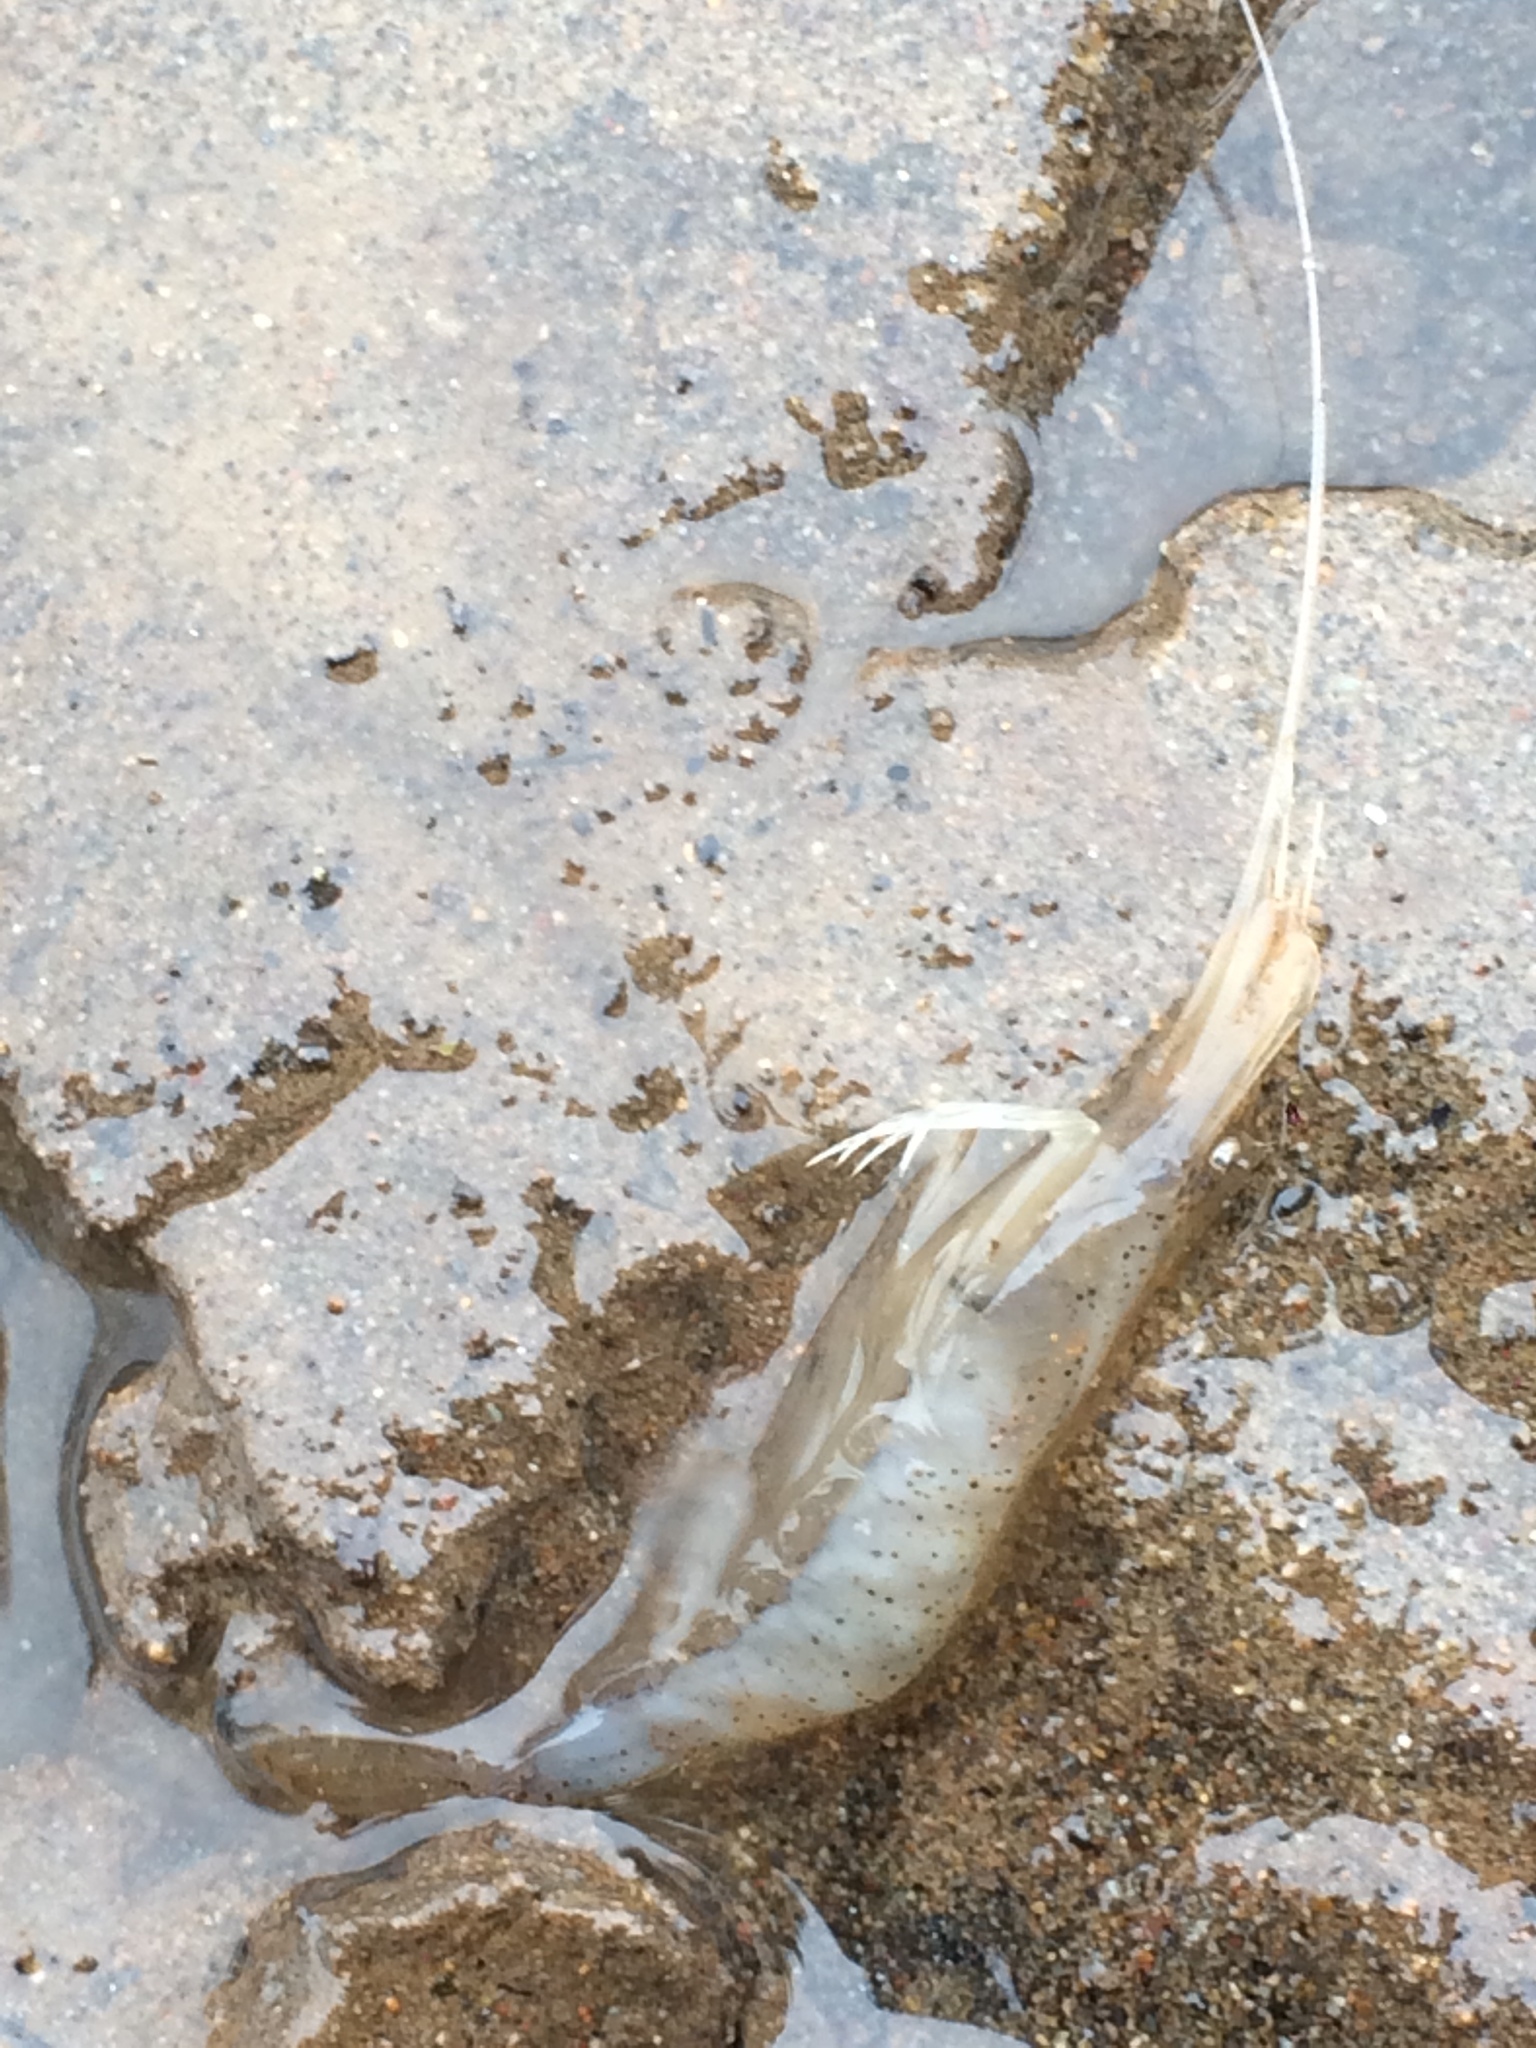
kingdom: Animalia
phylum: Arthropoda
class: Malacostraca
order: Decapoda
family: Palaemonidae
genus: Palaemon
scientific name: Palaemon modestus
